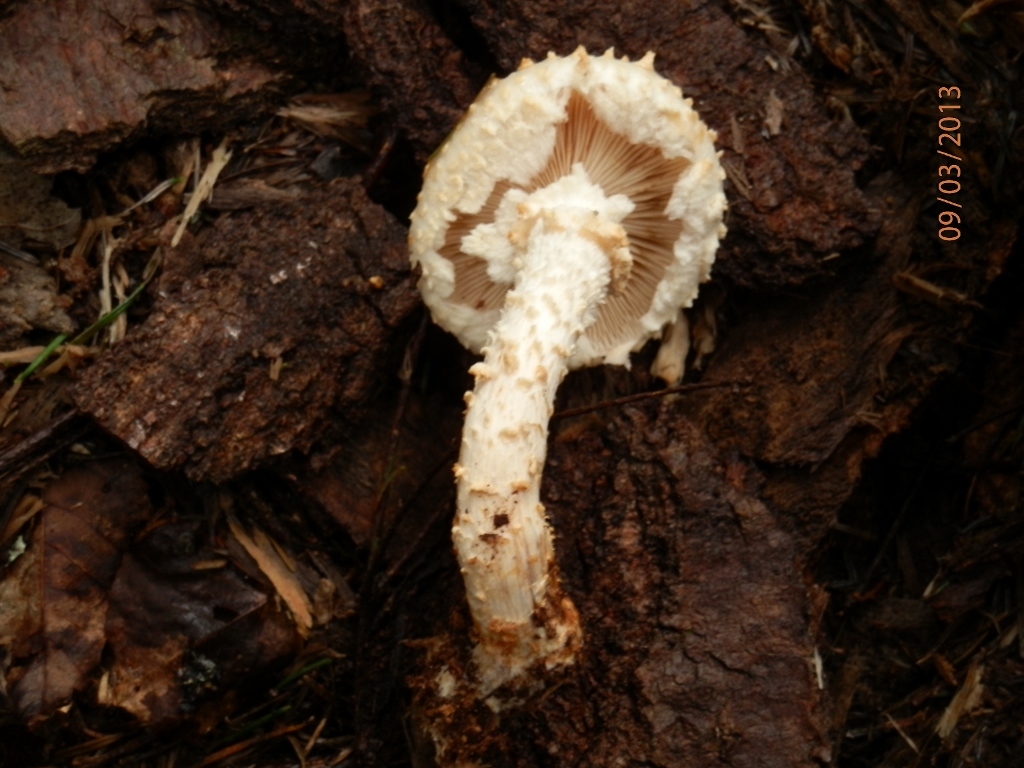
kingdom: Fungi
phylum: Basidiomycota
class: Agaricomycetes
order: Agaricales
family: Strophariaceae
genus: Pholiota
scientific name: Pholiota squarrosoides
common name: Sharp-scaly pholiota
